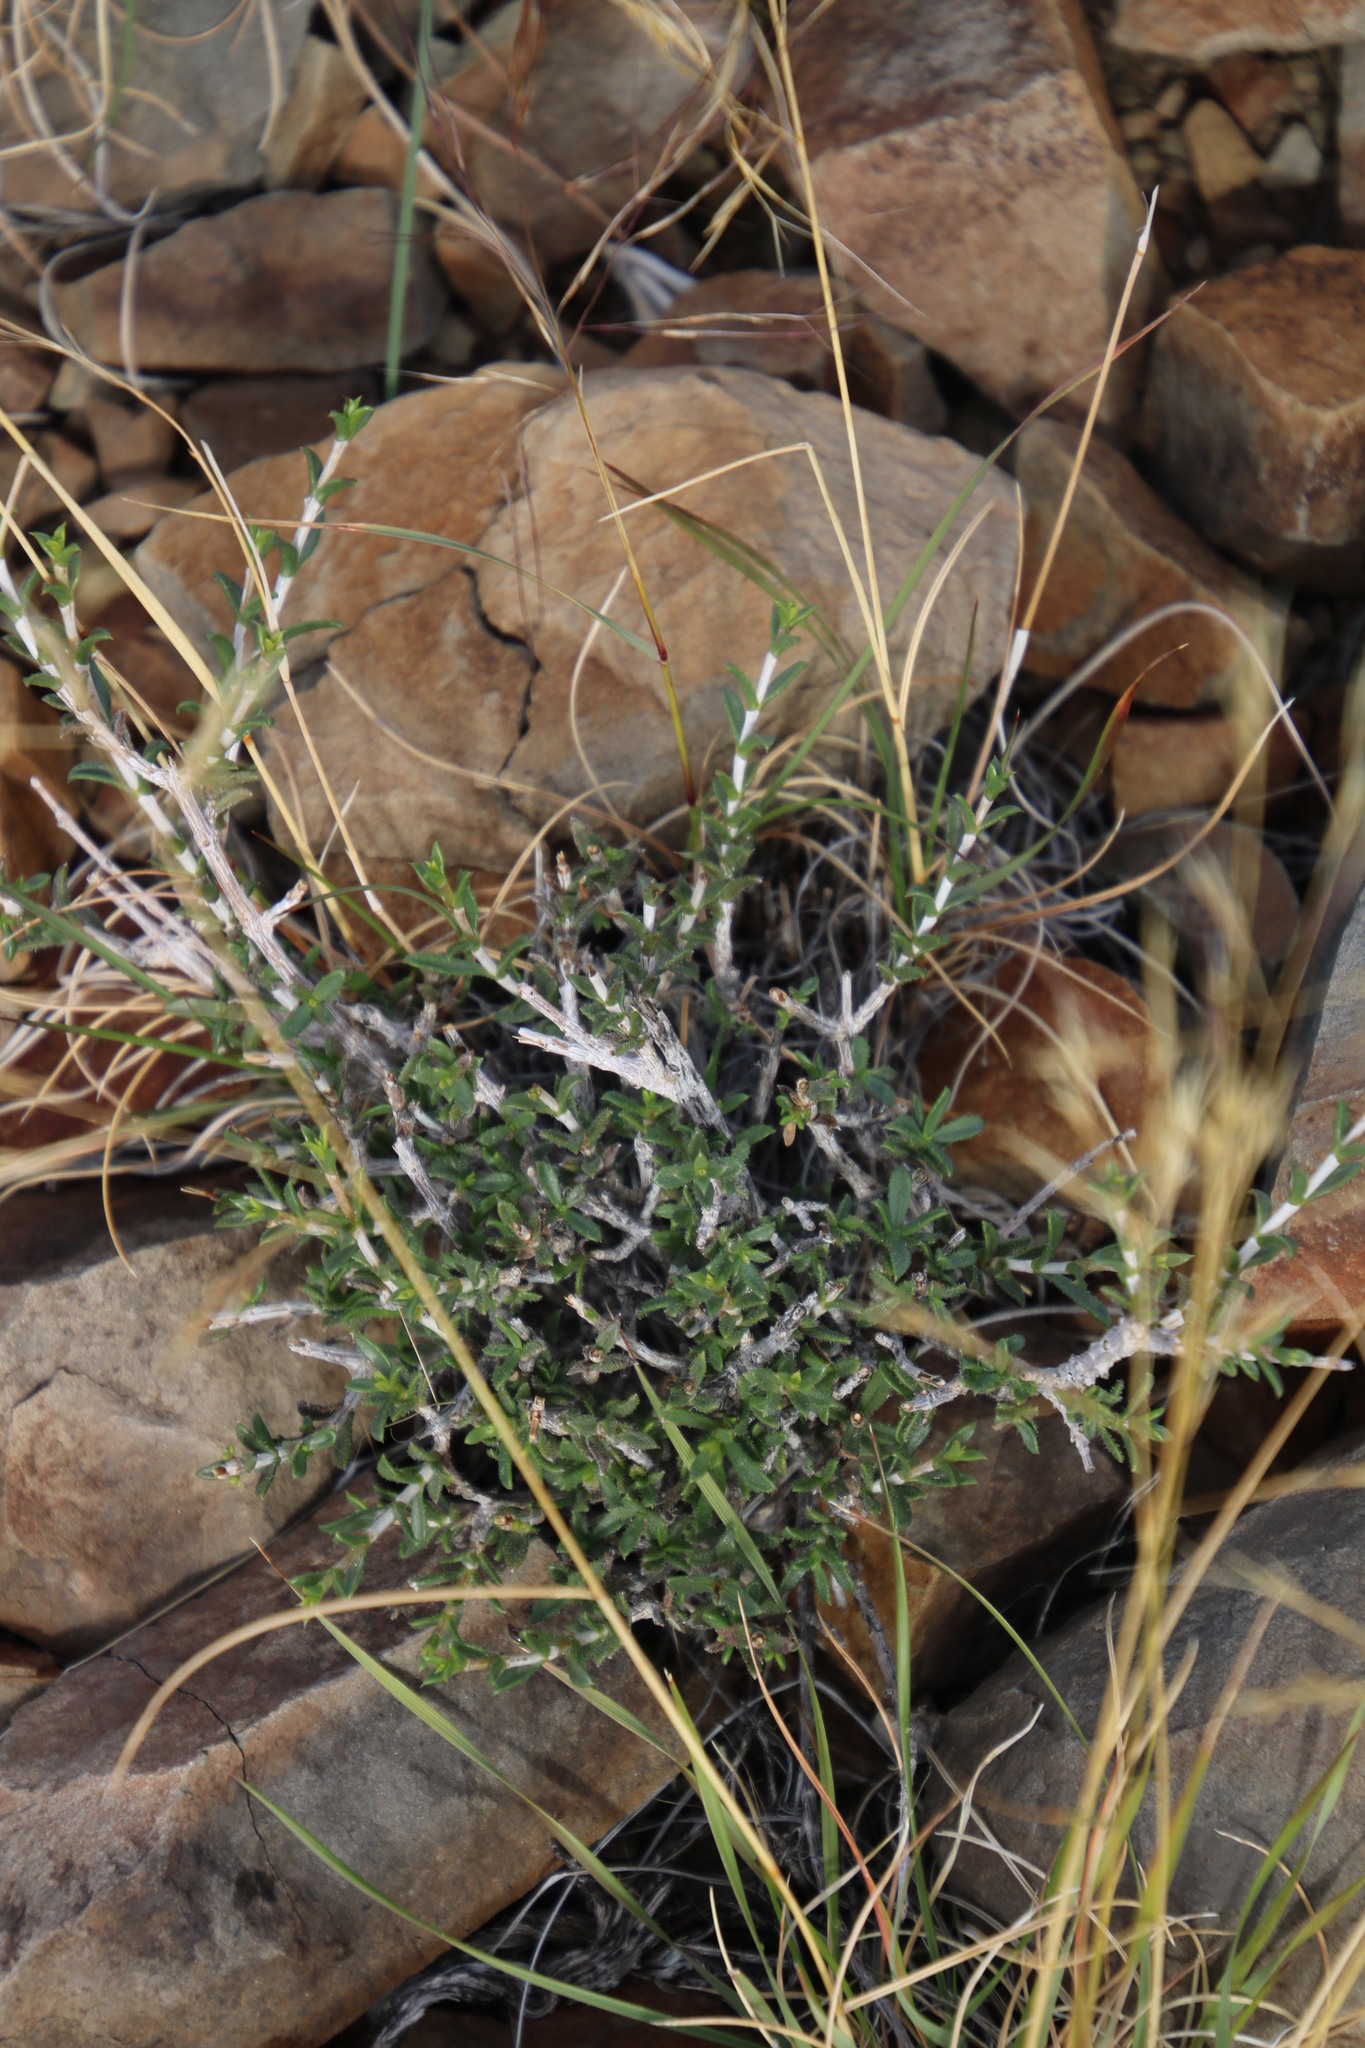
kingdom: Plantae
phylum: Tracheophyta
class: Magnoliopsida
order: Caryophyllales
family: Limeaceae
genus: Limeum
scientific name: Limeum aethiopicum
